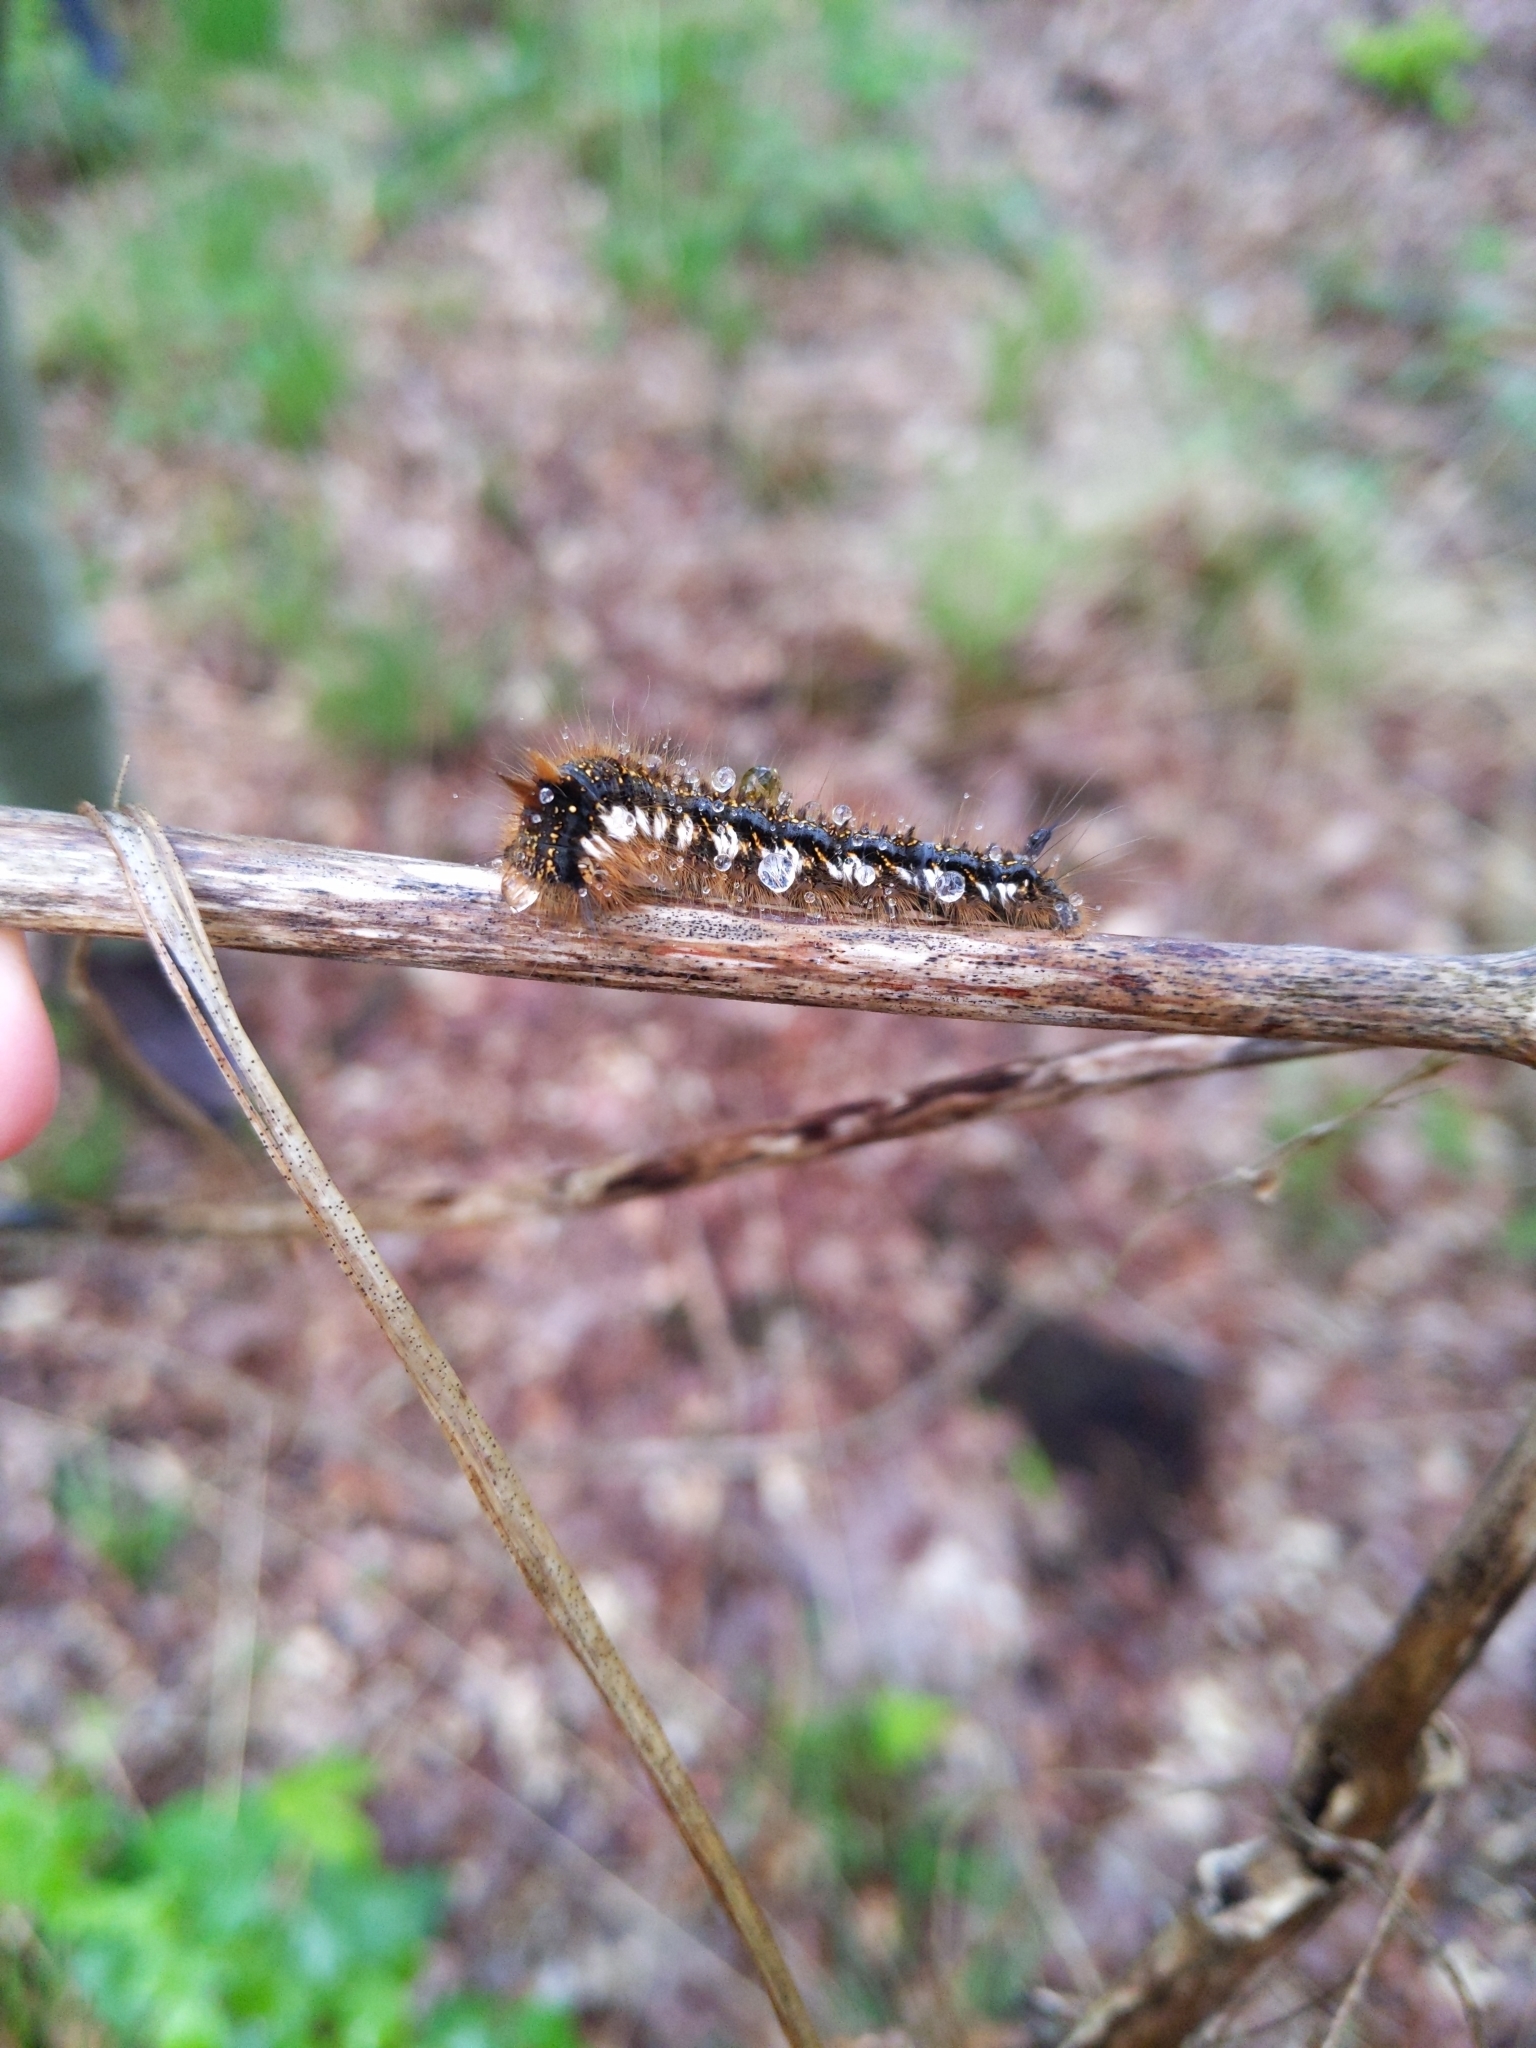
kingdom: Animalia
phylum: Arthropoda
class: Insecta
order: Lepidoptera
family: Lasiocampidae
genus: Euthrix
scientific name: Euthrix potatoria
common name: Drinker
